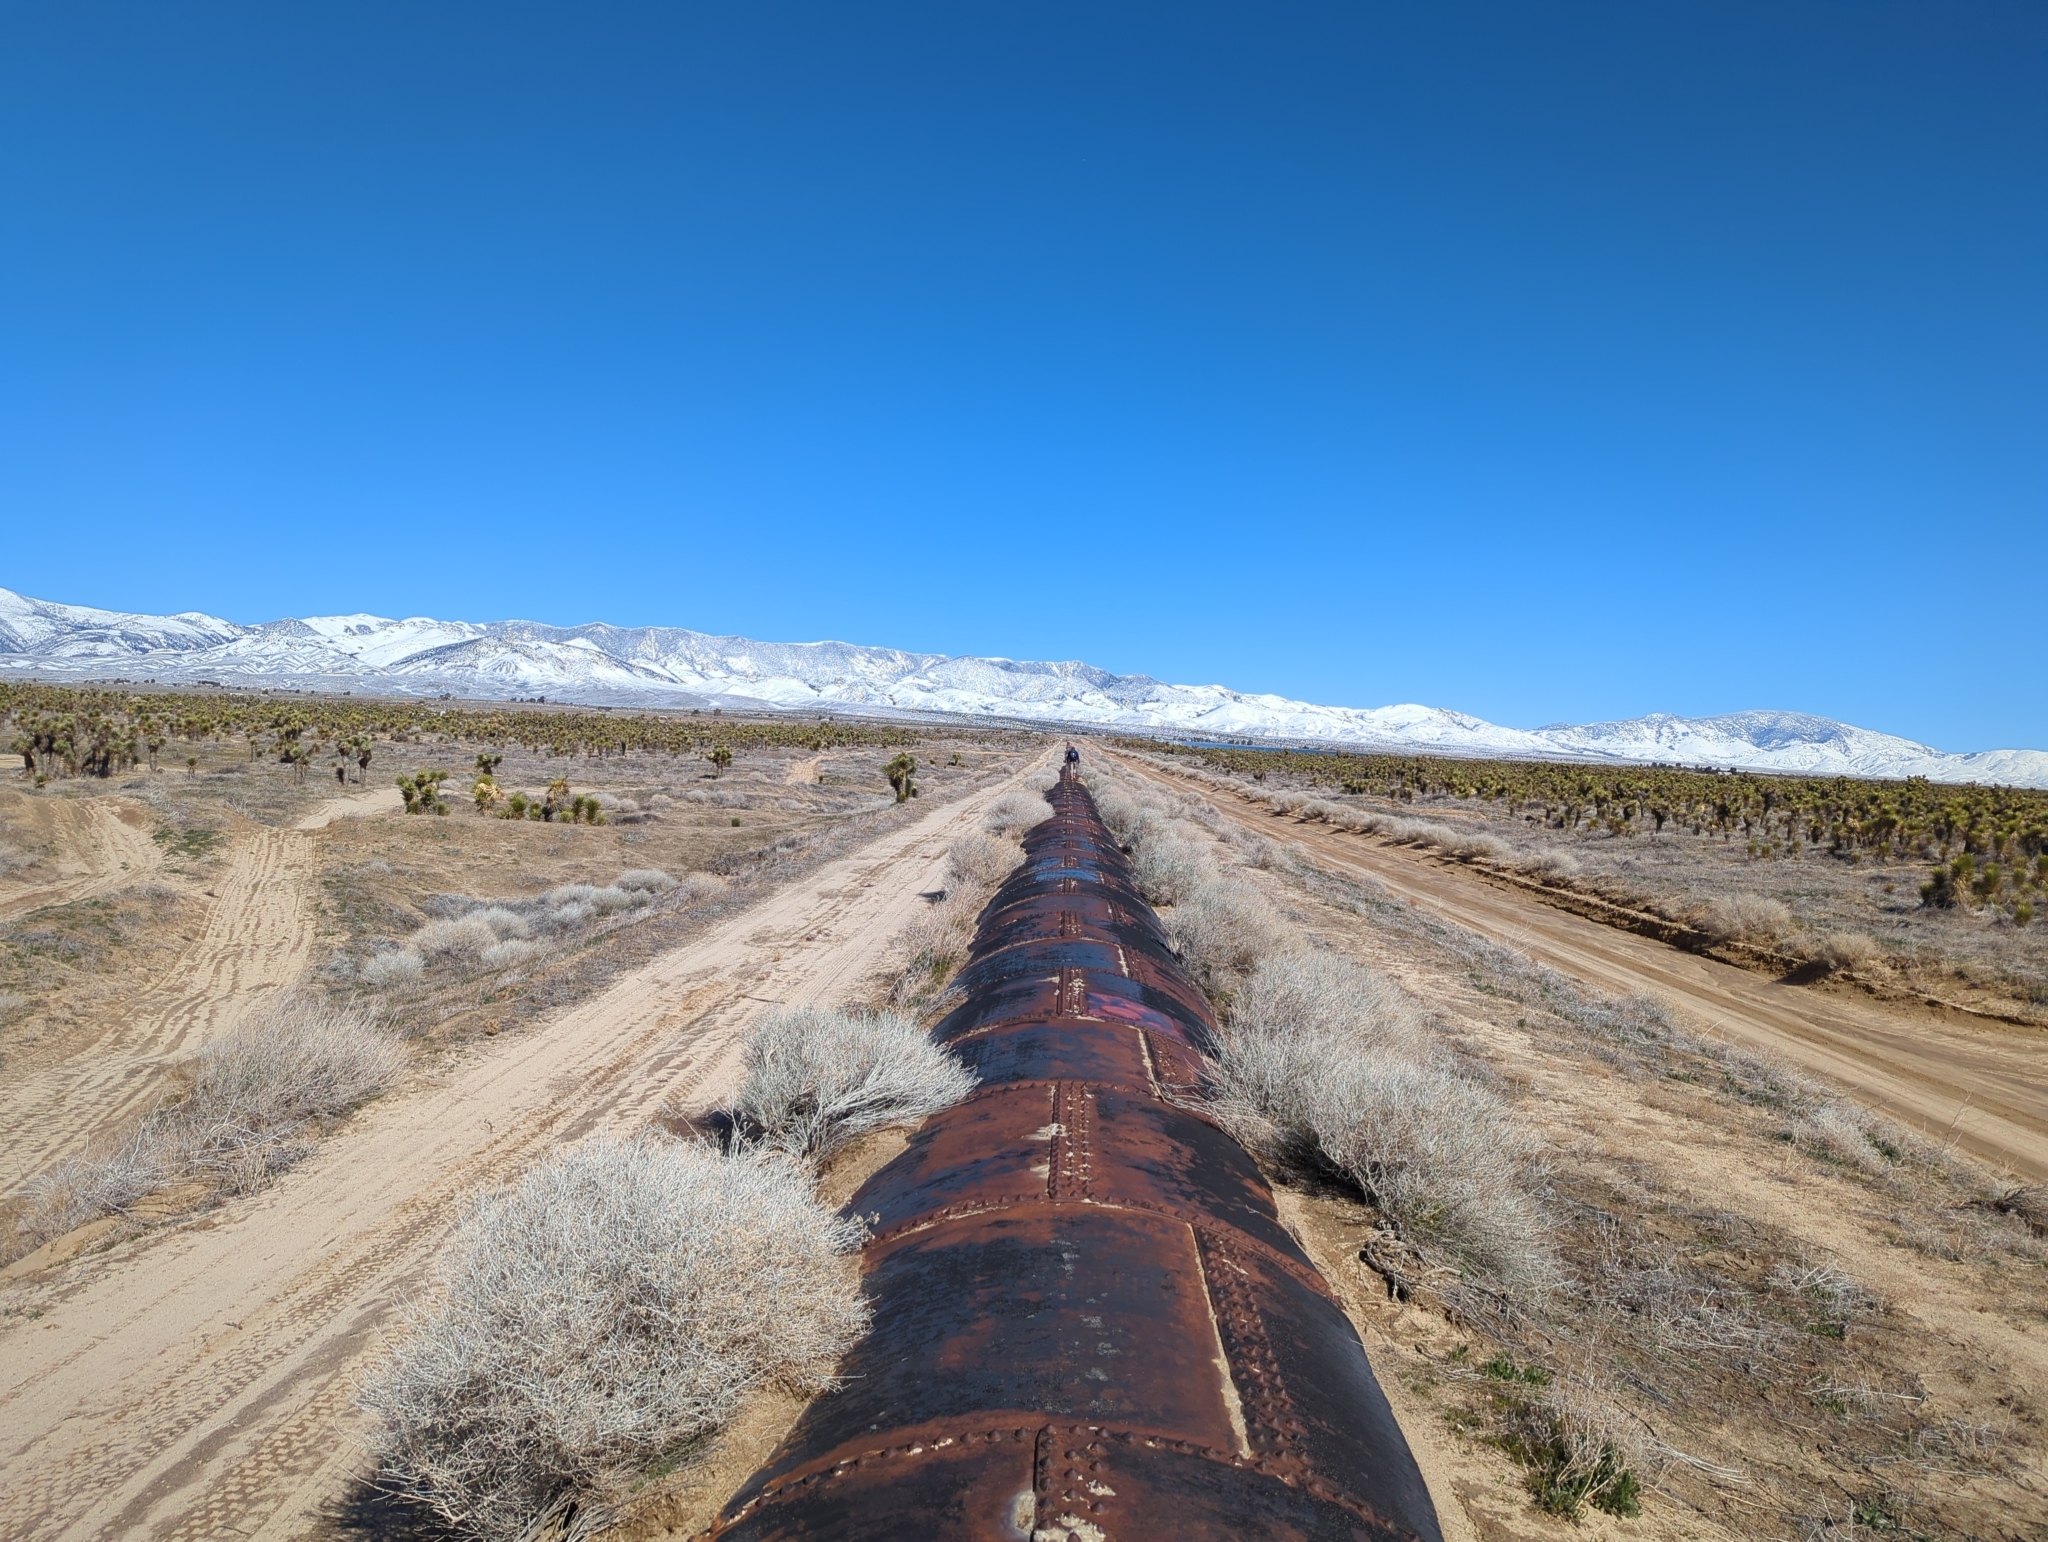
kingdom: Plantae
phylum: Tracheophyta
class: Liliopsida
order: Asparagales
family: Asparagaceae
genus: Yucca
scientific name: Yucca brevifolia
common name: Joshua tree
